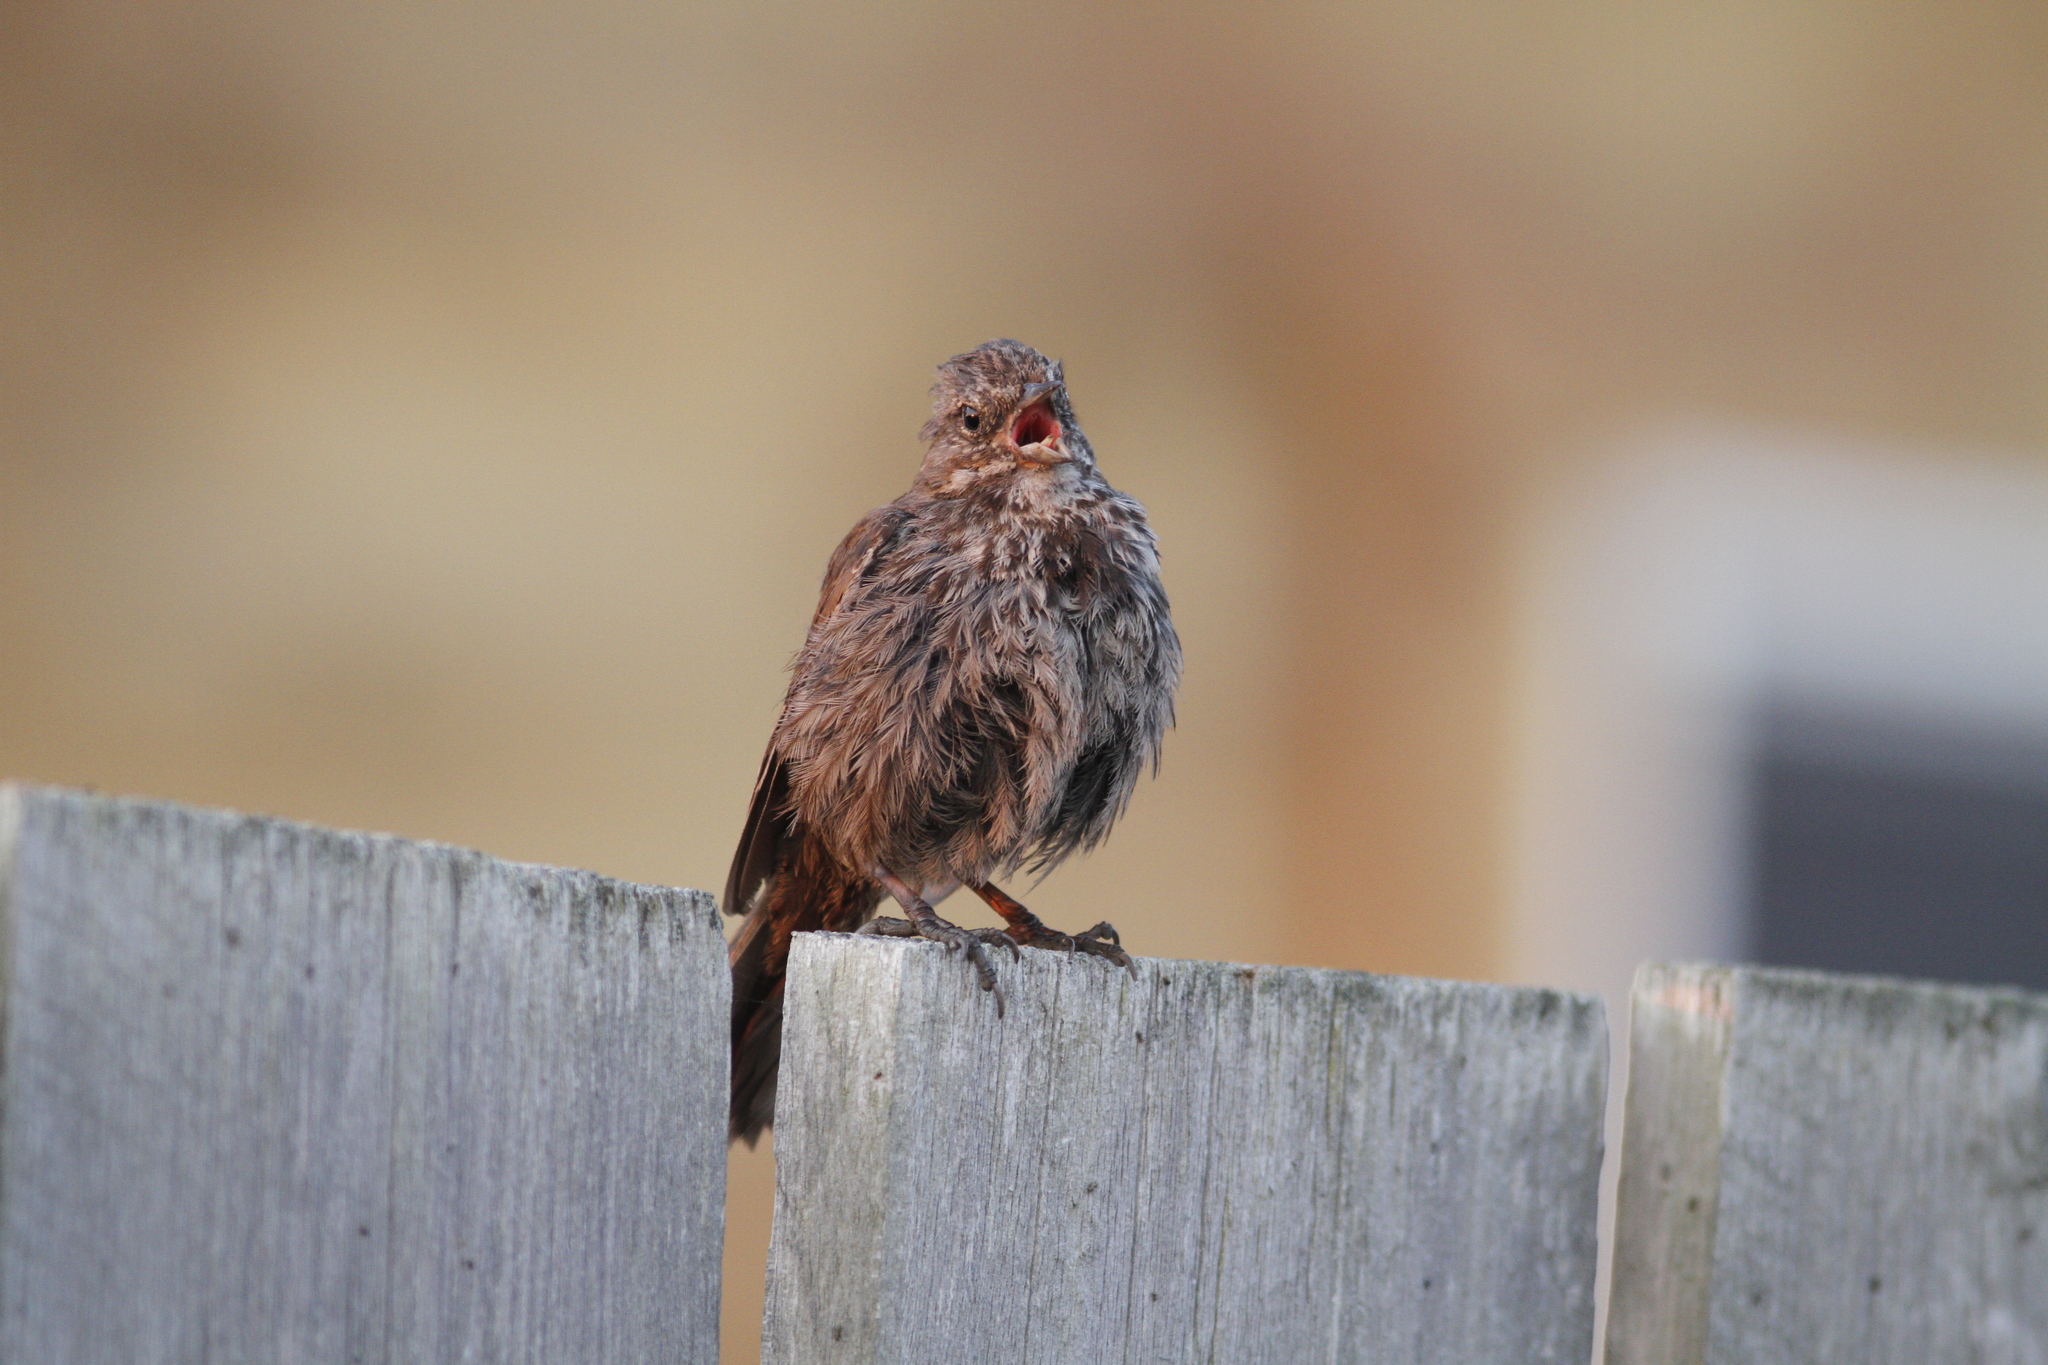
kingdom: Animalia
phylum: Chordata
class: Aves
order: Passeriformes
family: Passerellidae
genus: Melospiza
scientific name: Melospiza melodia
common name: Song sparrow
